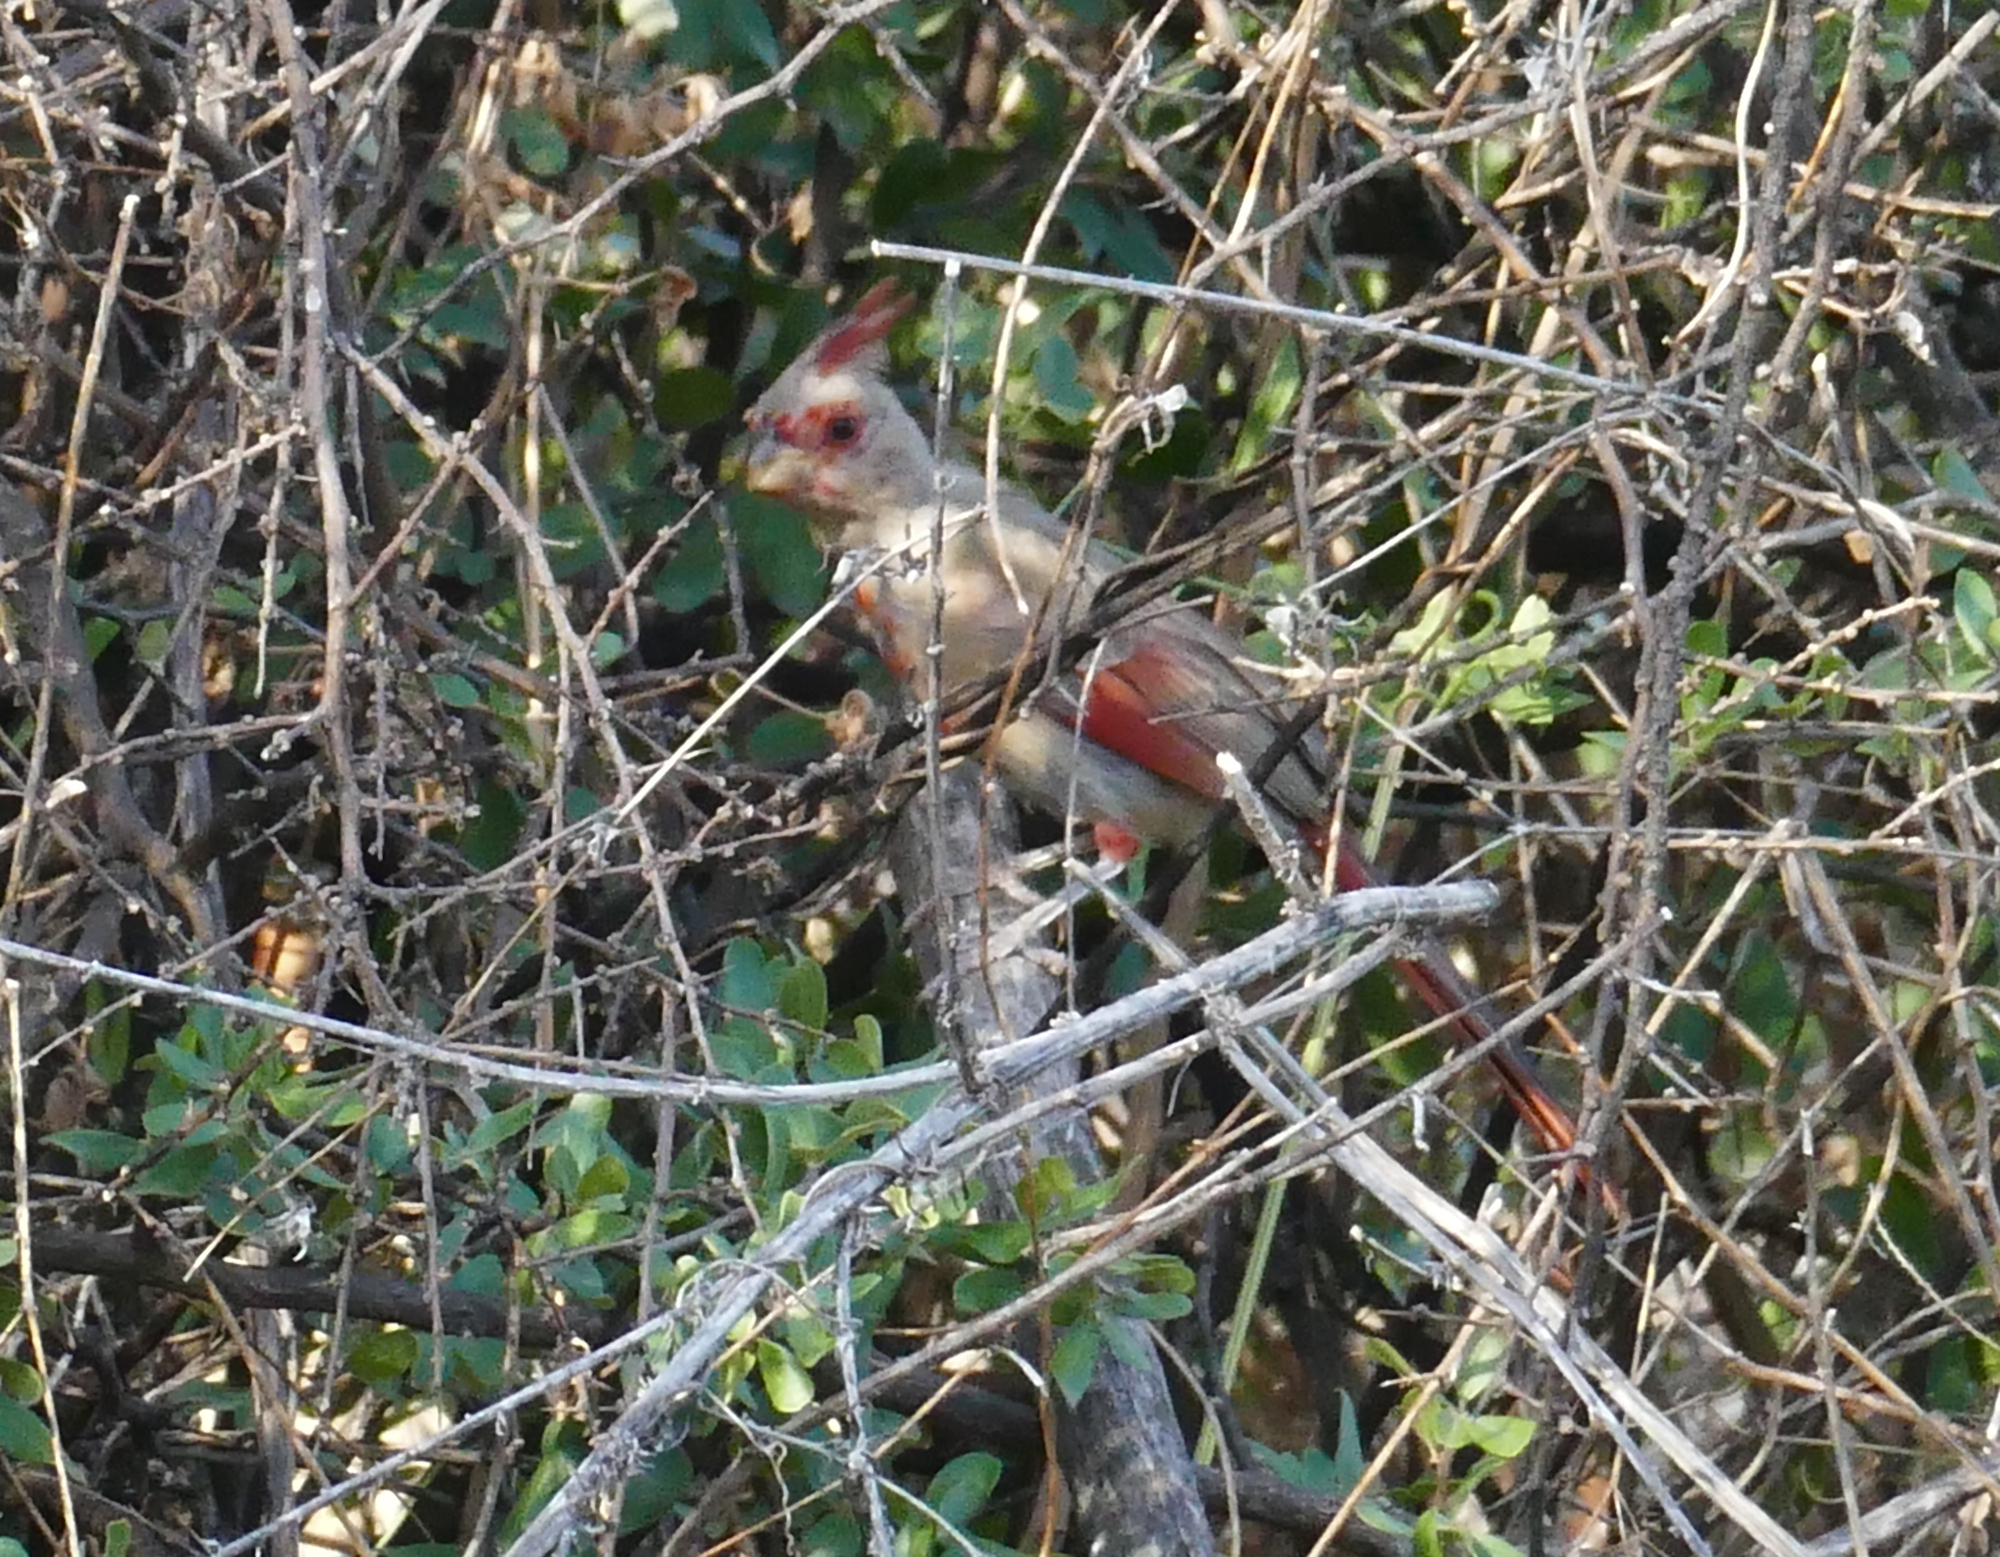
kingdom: Animalia
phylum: Chordata
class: Aves
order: Passeriformes
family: Cardinalidae
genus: Cardinalis
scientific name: Cardinalis sinuatus
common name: Pyrrhuloxia
